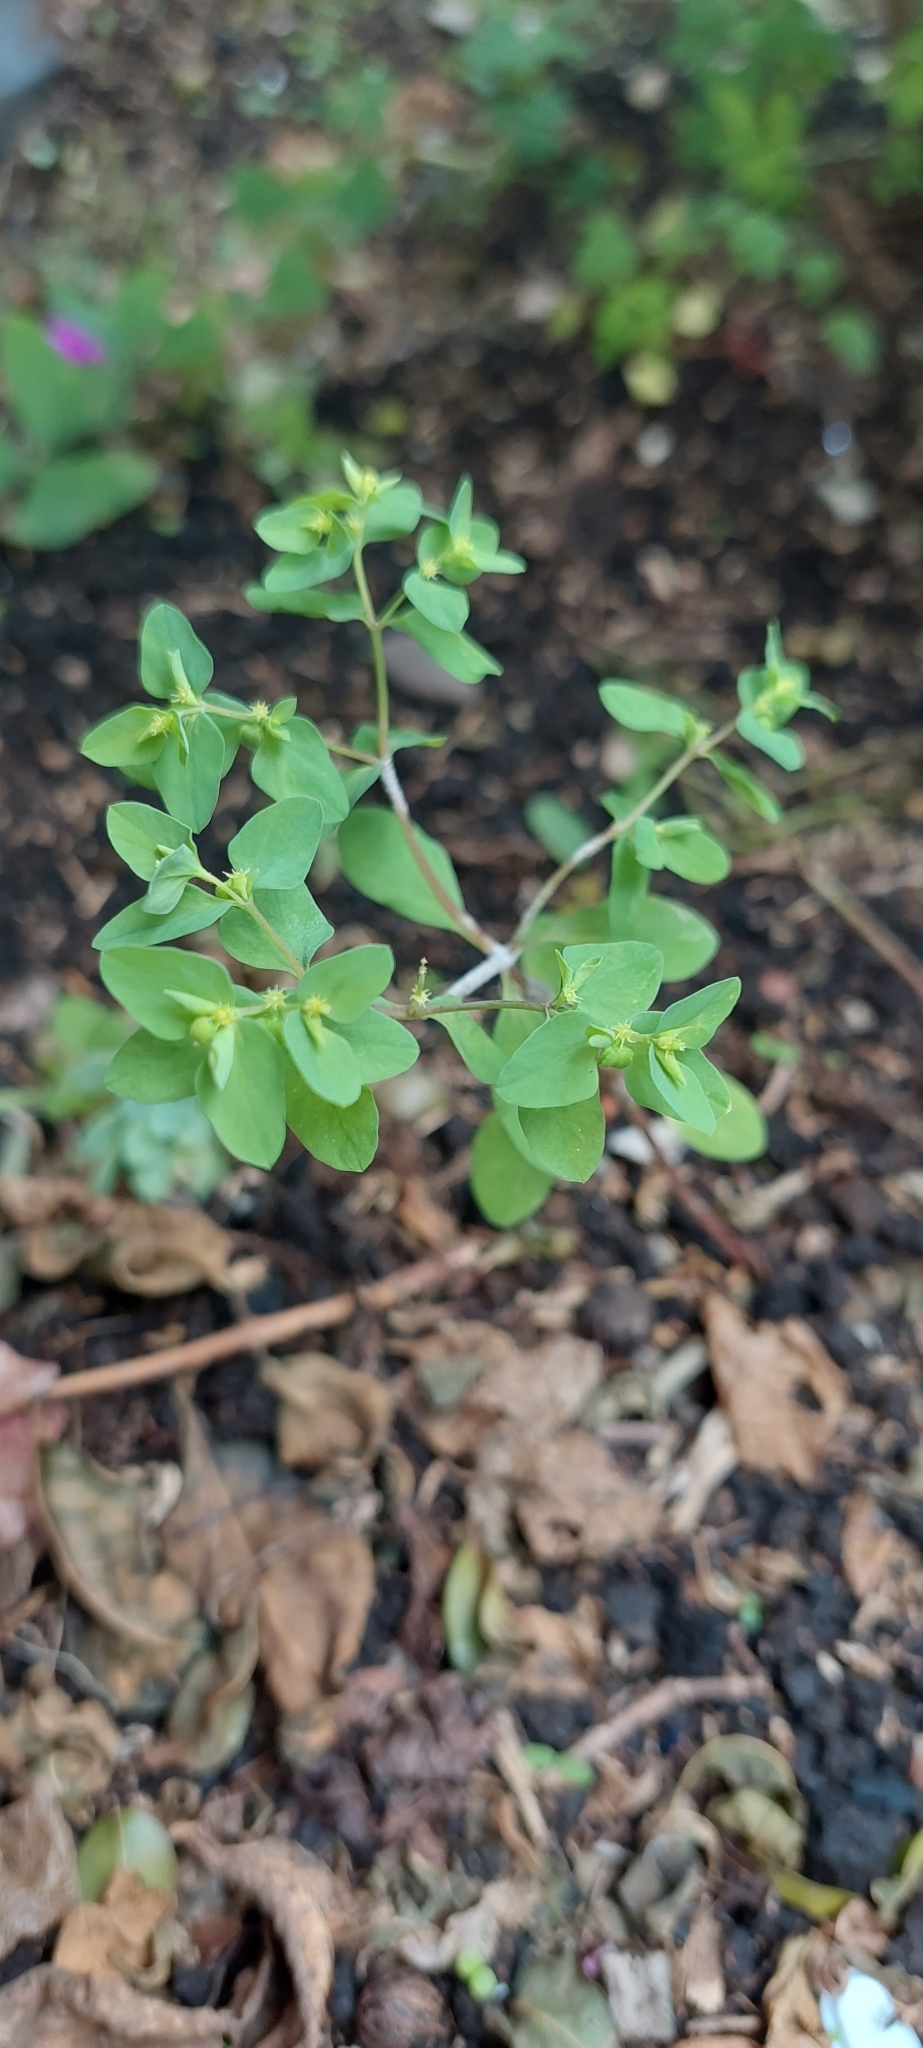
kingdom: Plantae
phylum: Tracheophyta
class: Magnoliopsida
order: Malpighiales
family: Euphorbiaceae
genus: Euphorbia
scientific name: Euphorbia peplus
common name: Petty spurge
